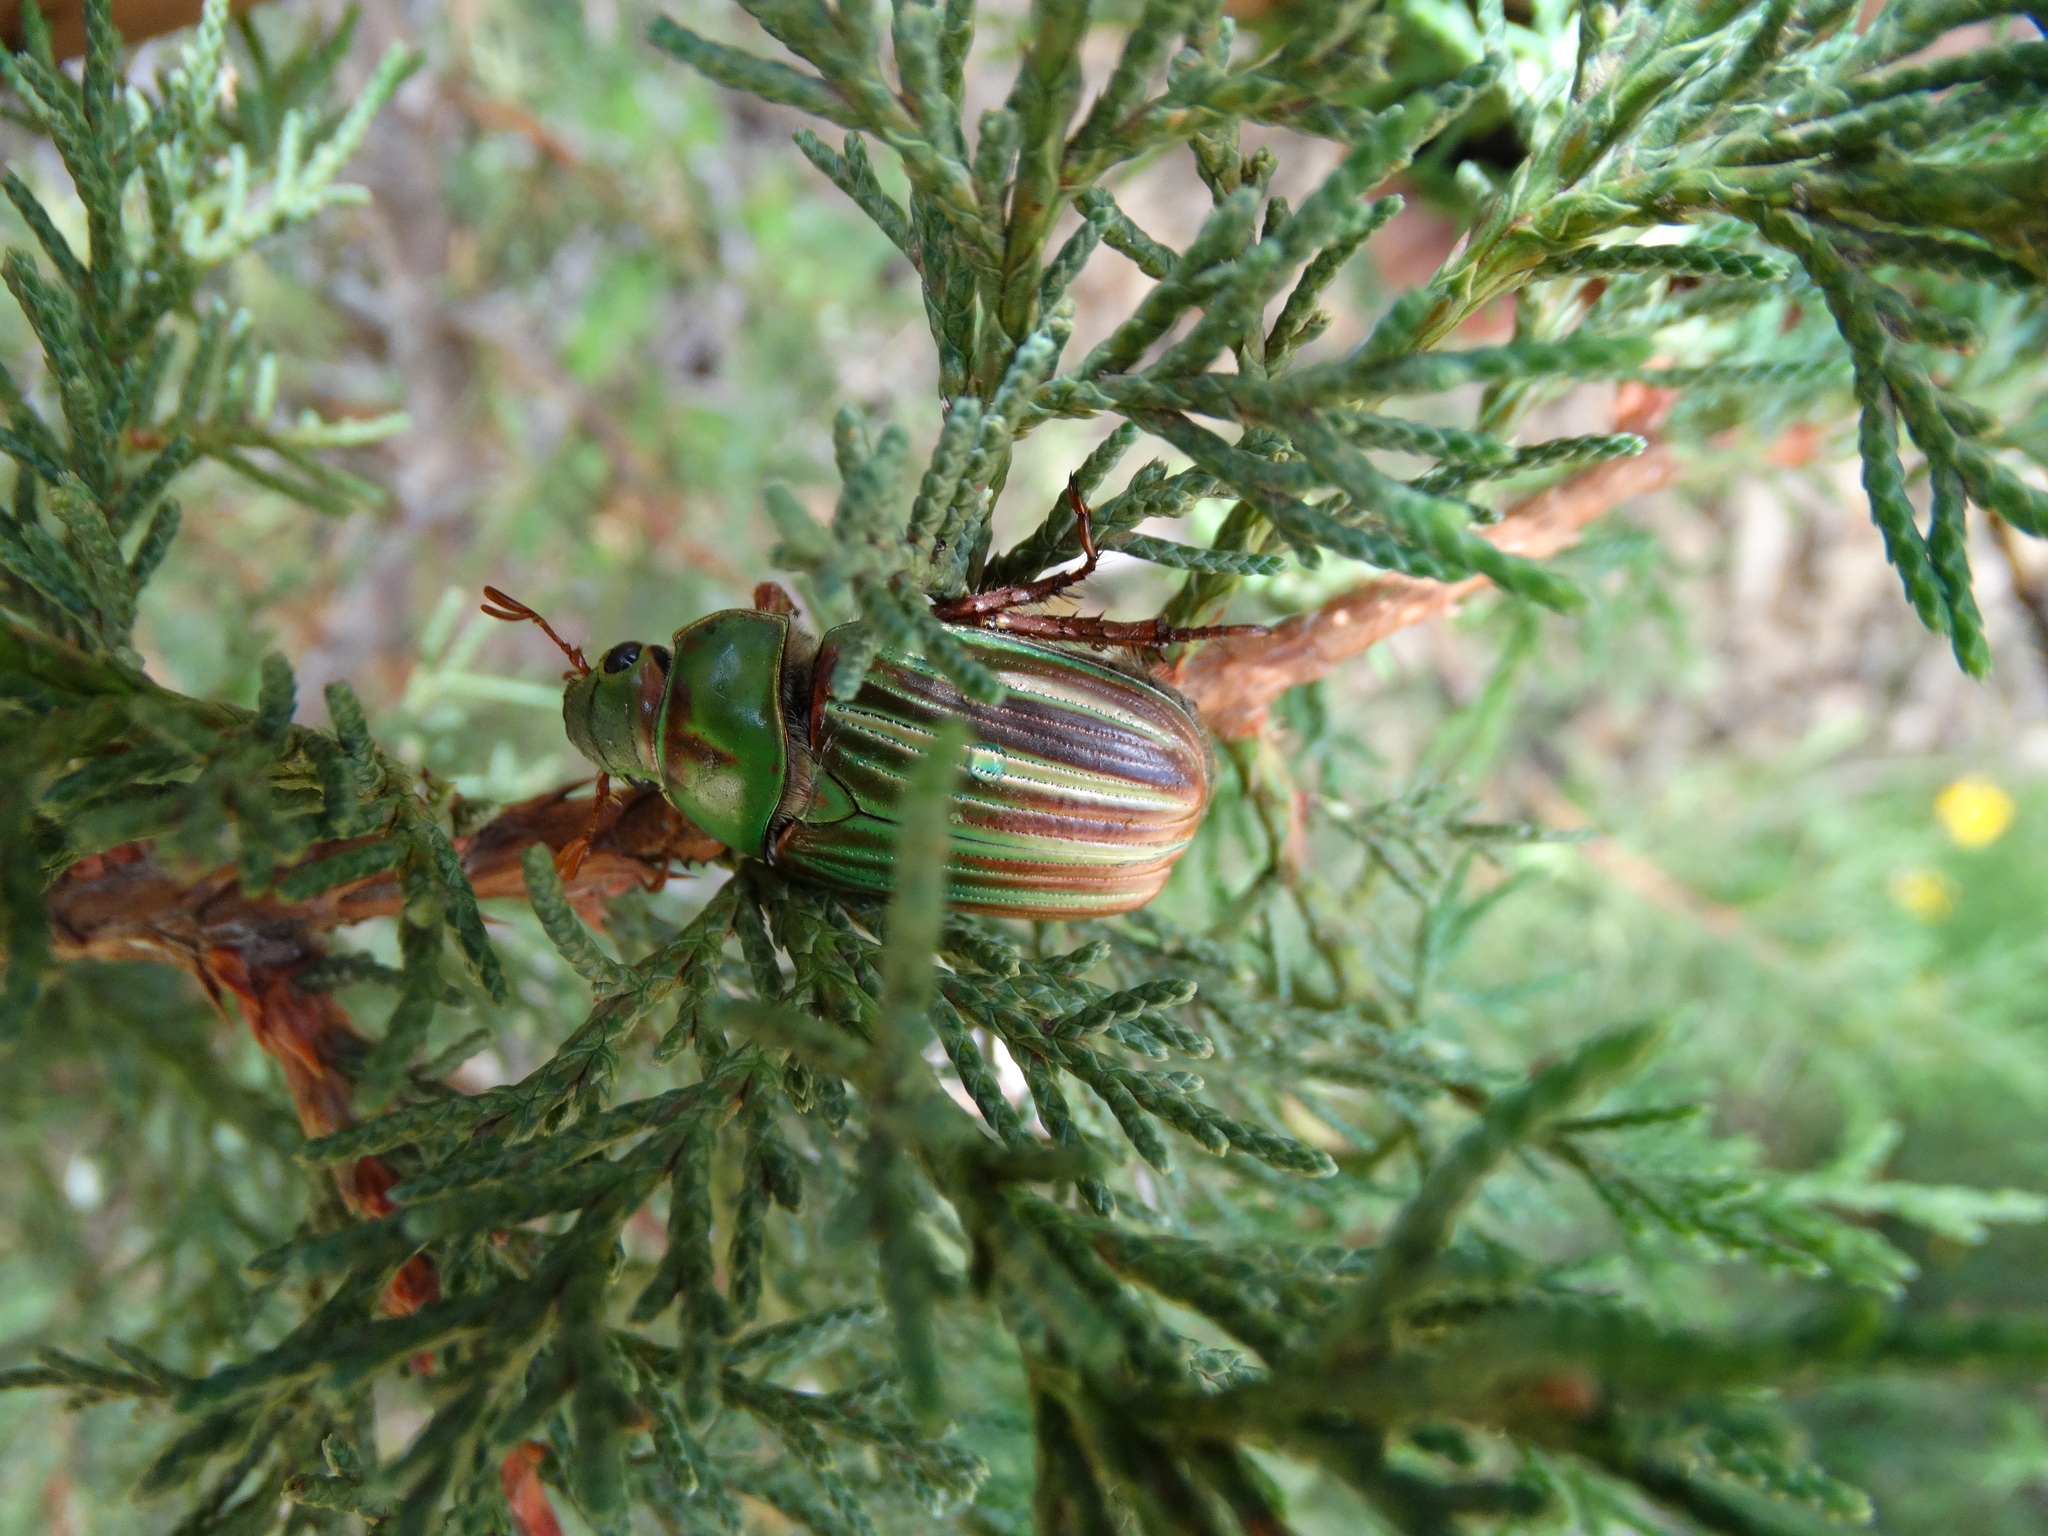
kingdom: Animalia
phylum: Arthropoda
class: Insecta
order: Coleoptera
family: Scarabaeidae
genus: Chrysina
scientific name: Chrysina adelaida
